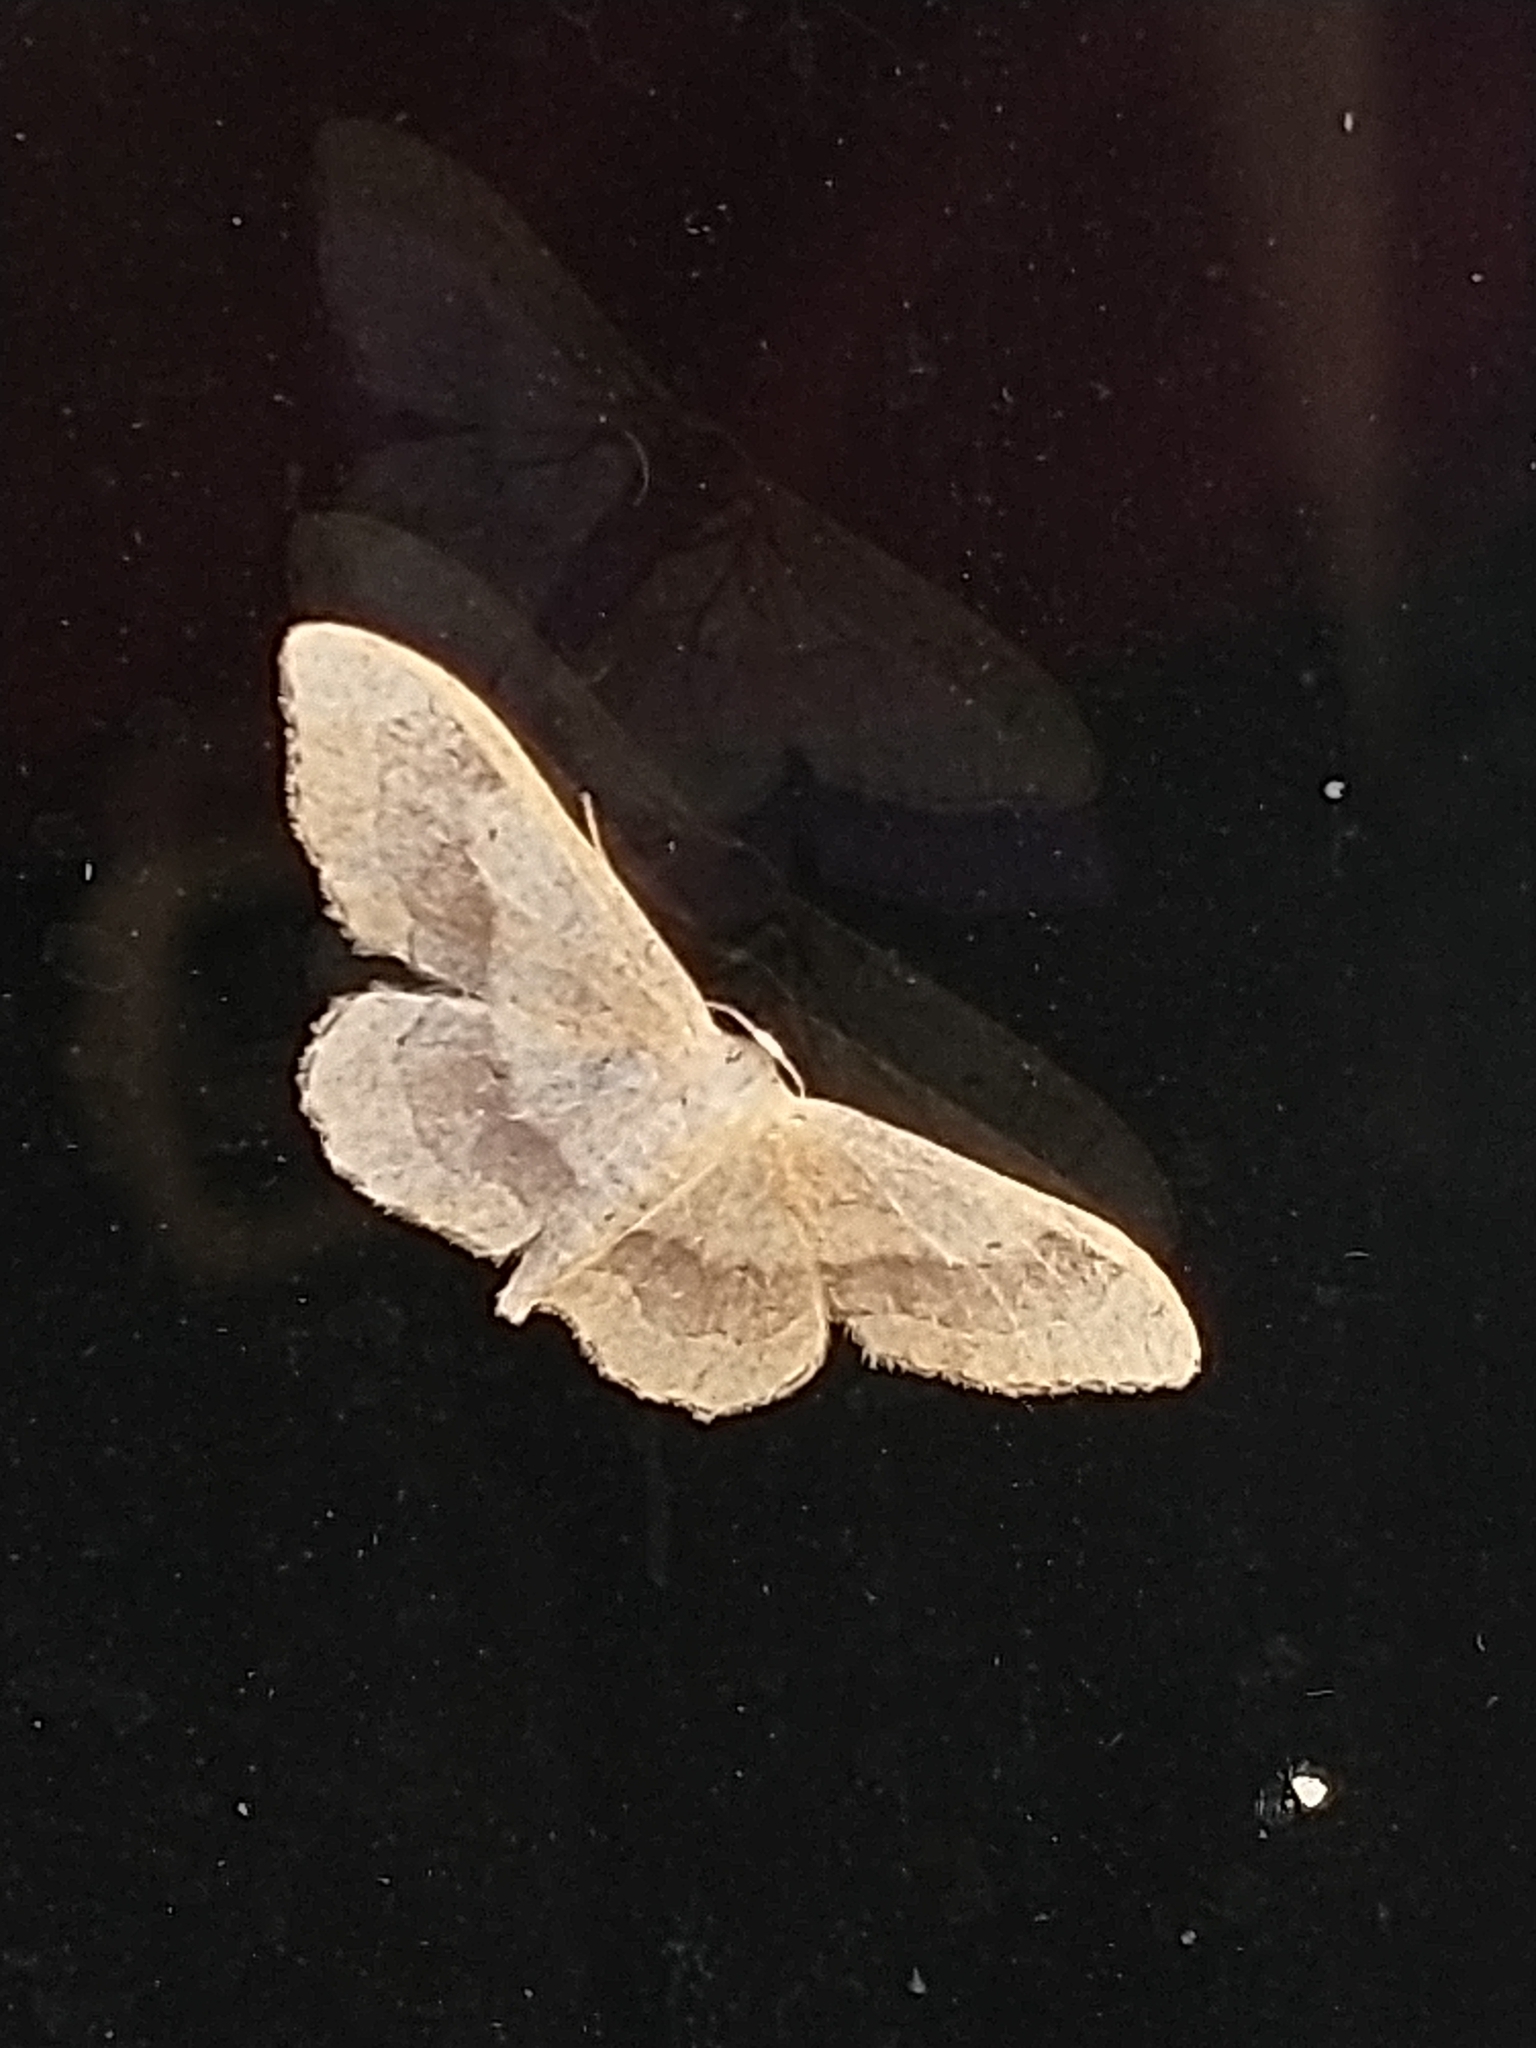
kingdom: Animalia
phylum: Arthropoda
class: Insecta
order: Lepidoptera
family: Geometridae
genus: Idaea
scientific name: Idaea aversata
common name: Riband wave
